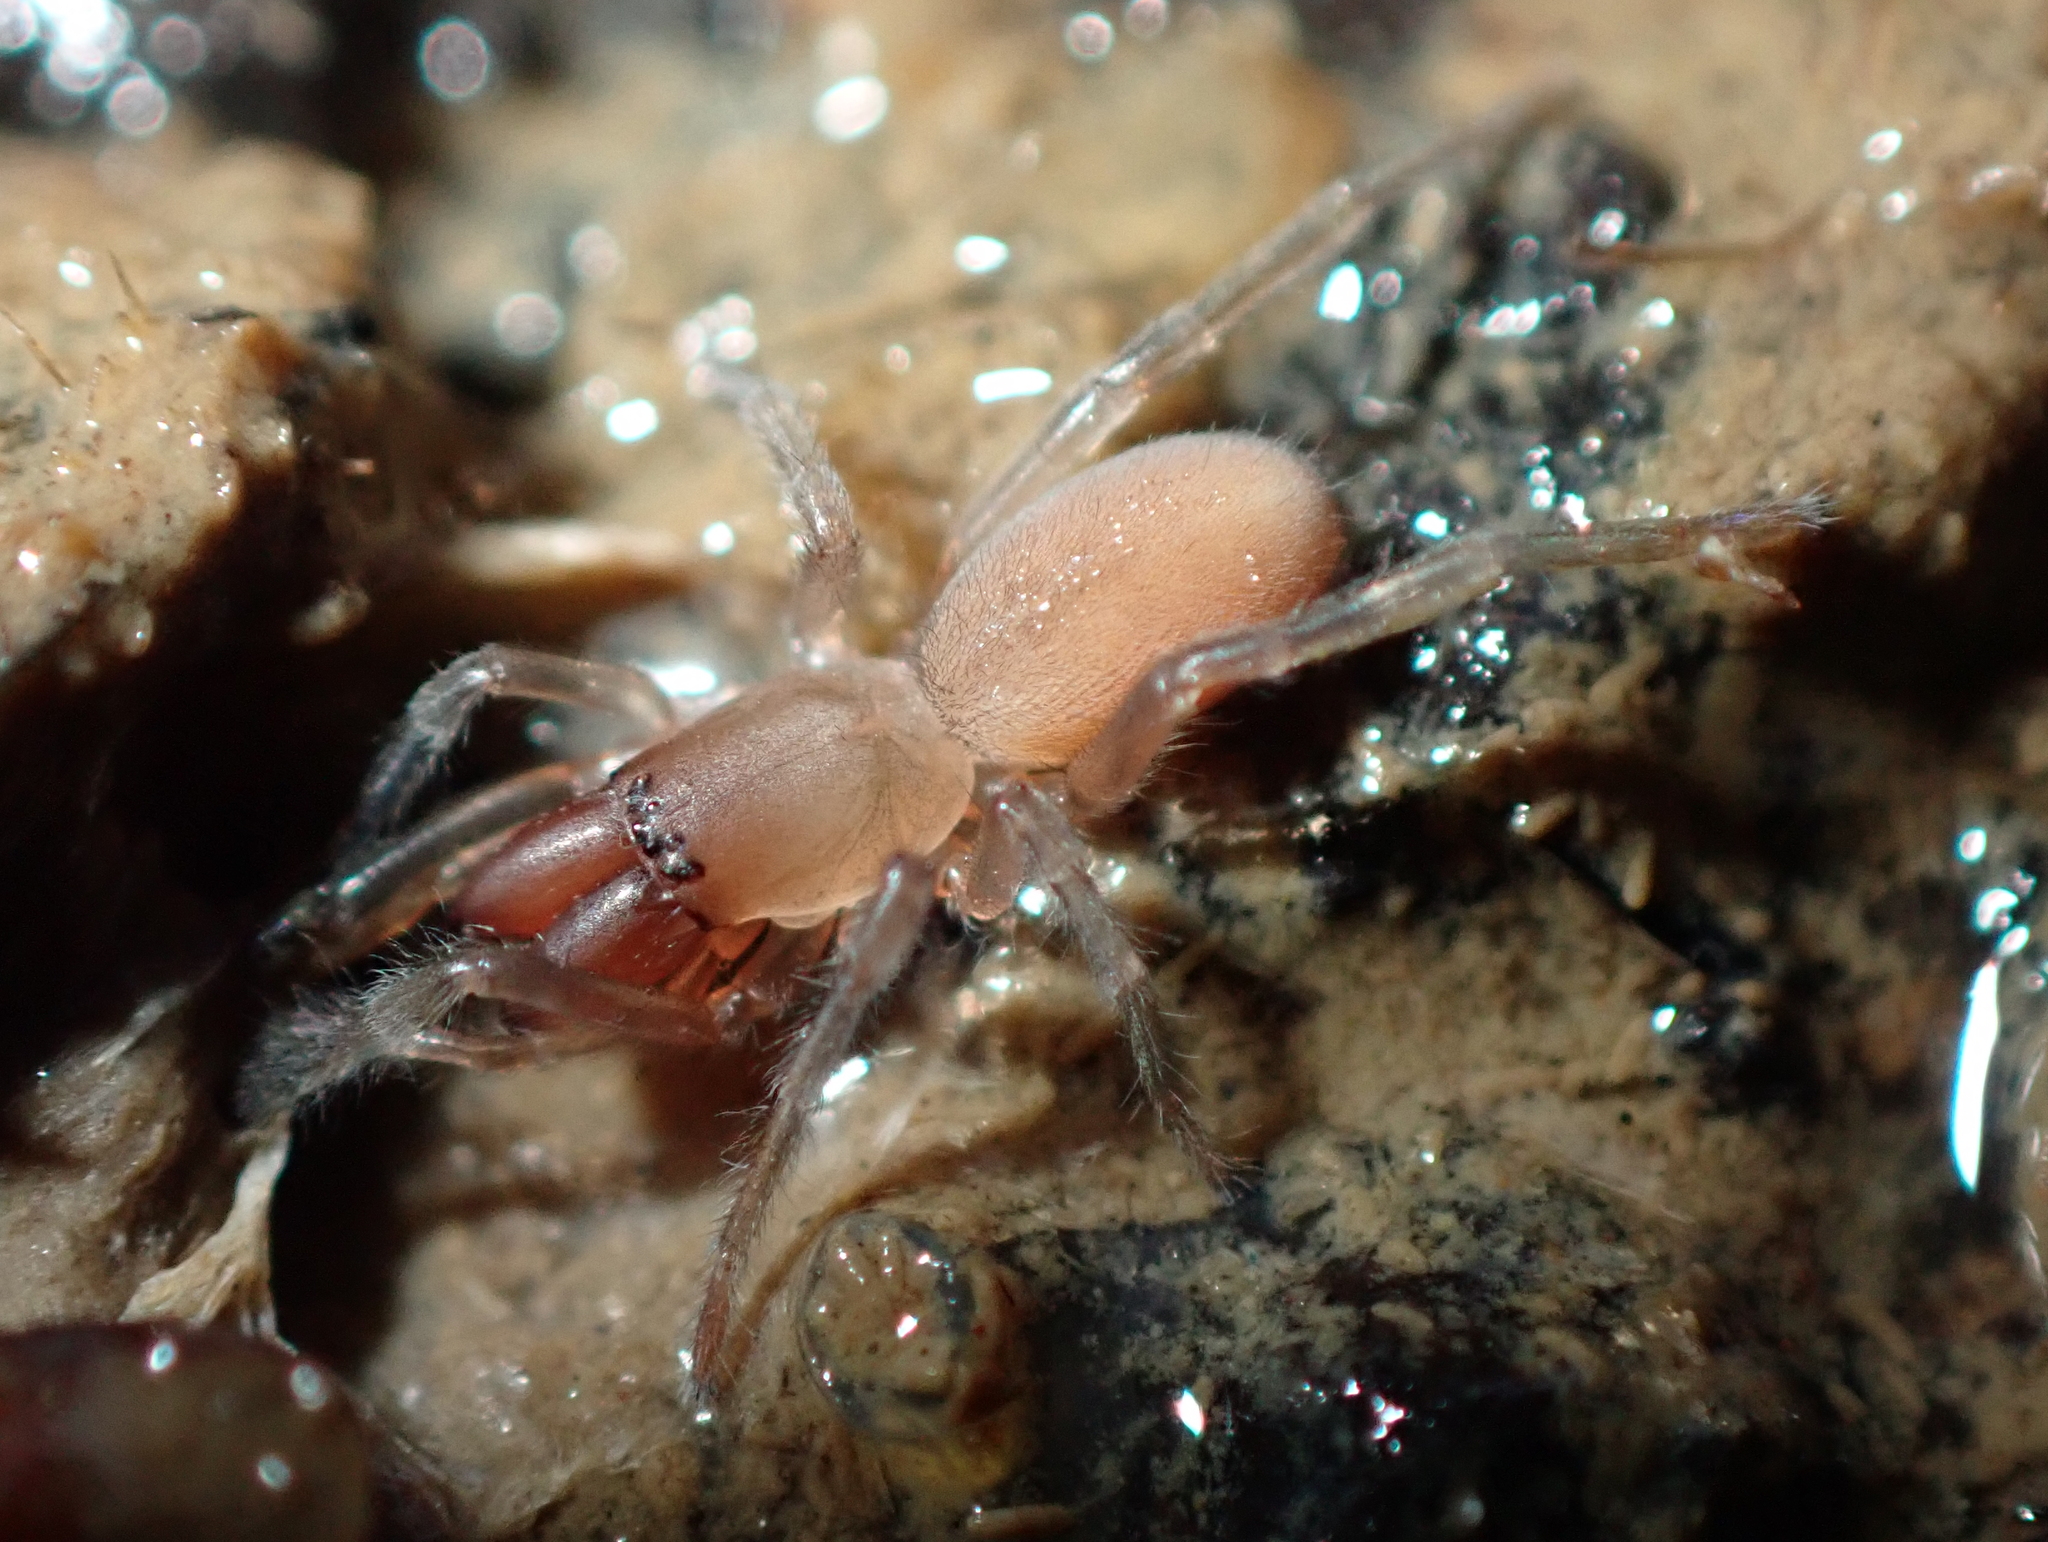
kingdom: Animalia
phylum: Arthropoda
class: Arachnida
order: Araneae
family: Desidae
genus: Desis
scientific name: Desis marina
